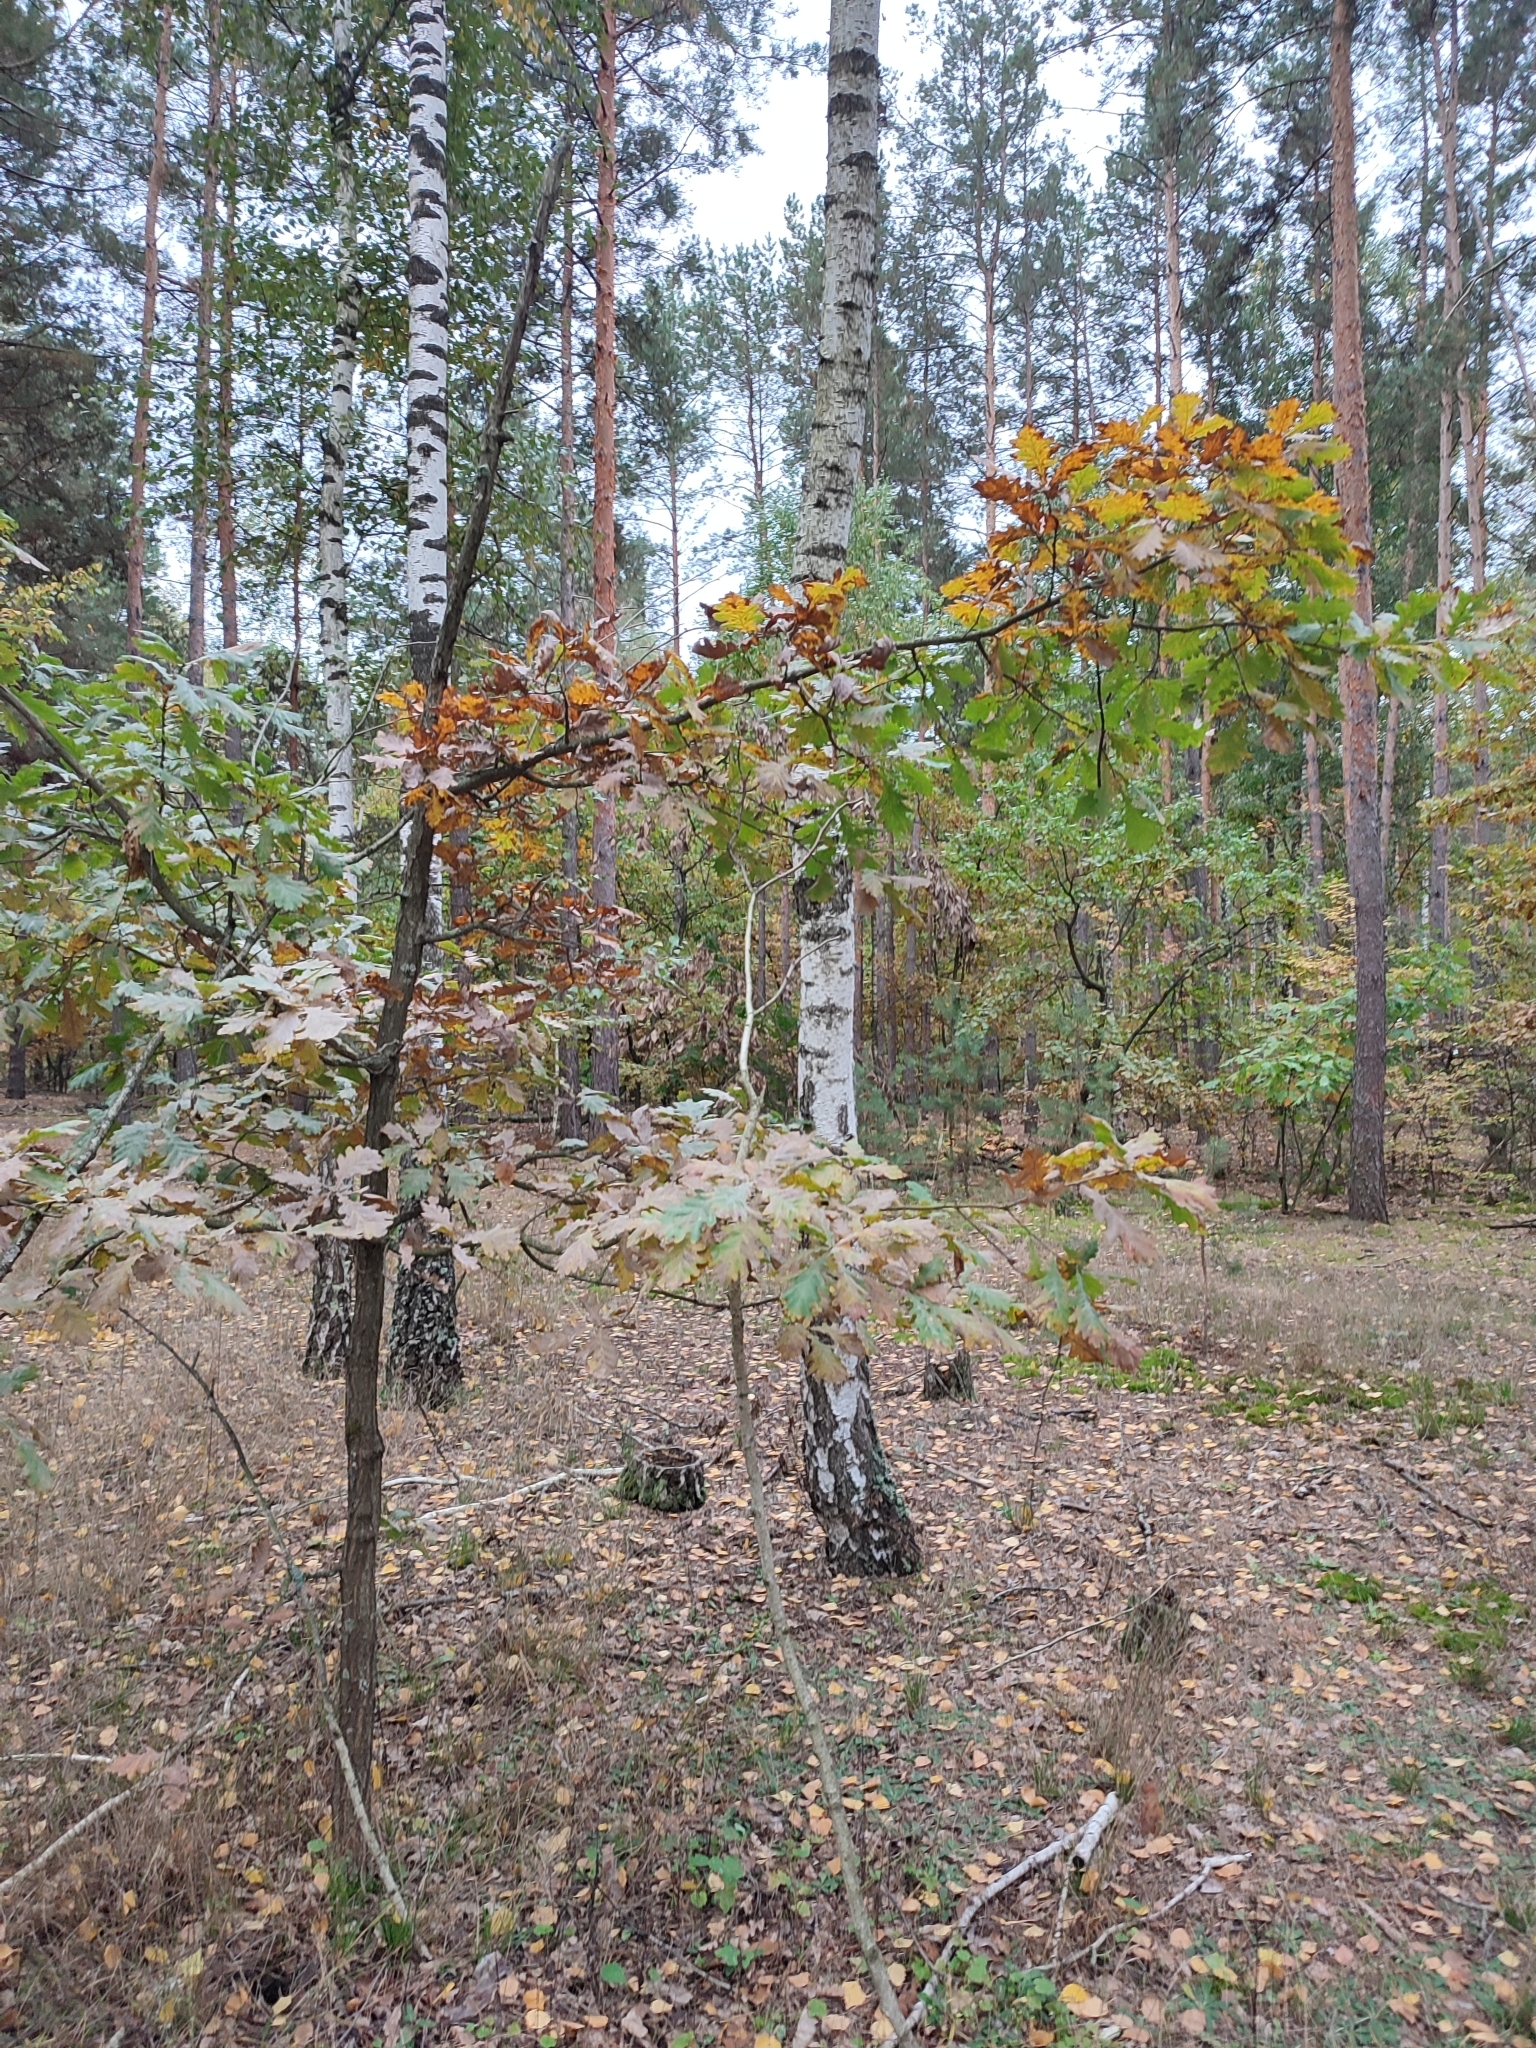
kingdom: Plantae
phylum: Tracheophyta
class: Magnoliopsida
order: Fagales
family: Fagaceae
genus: Quercus
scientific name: Quercus robur
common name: Pedunculate oak
